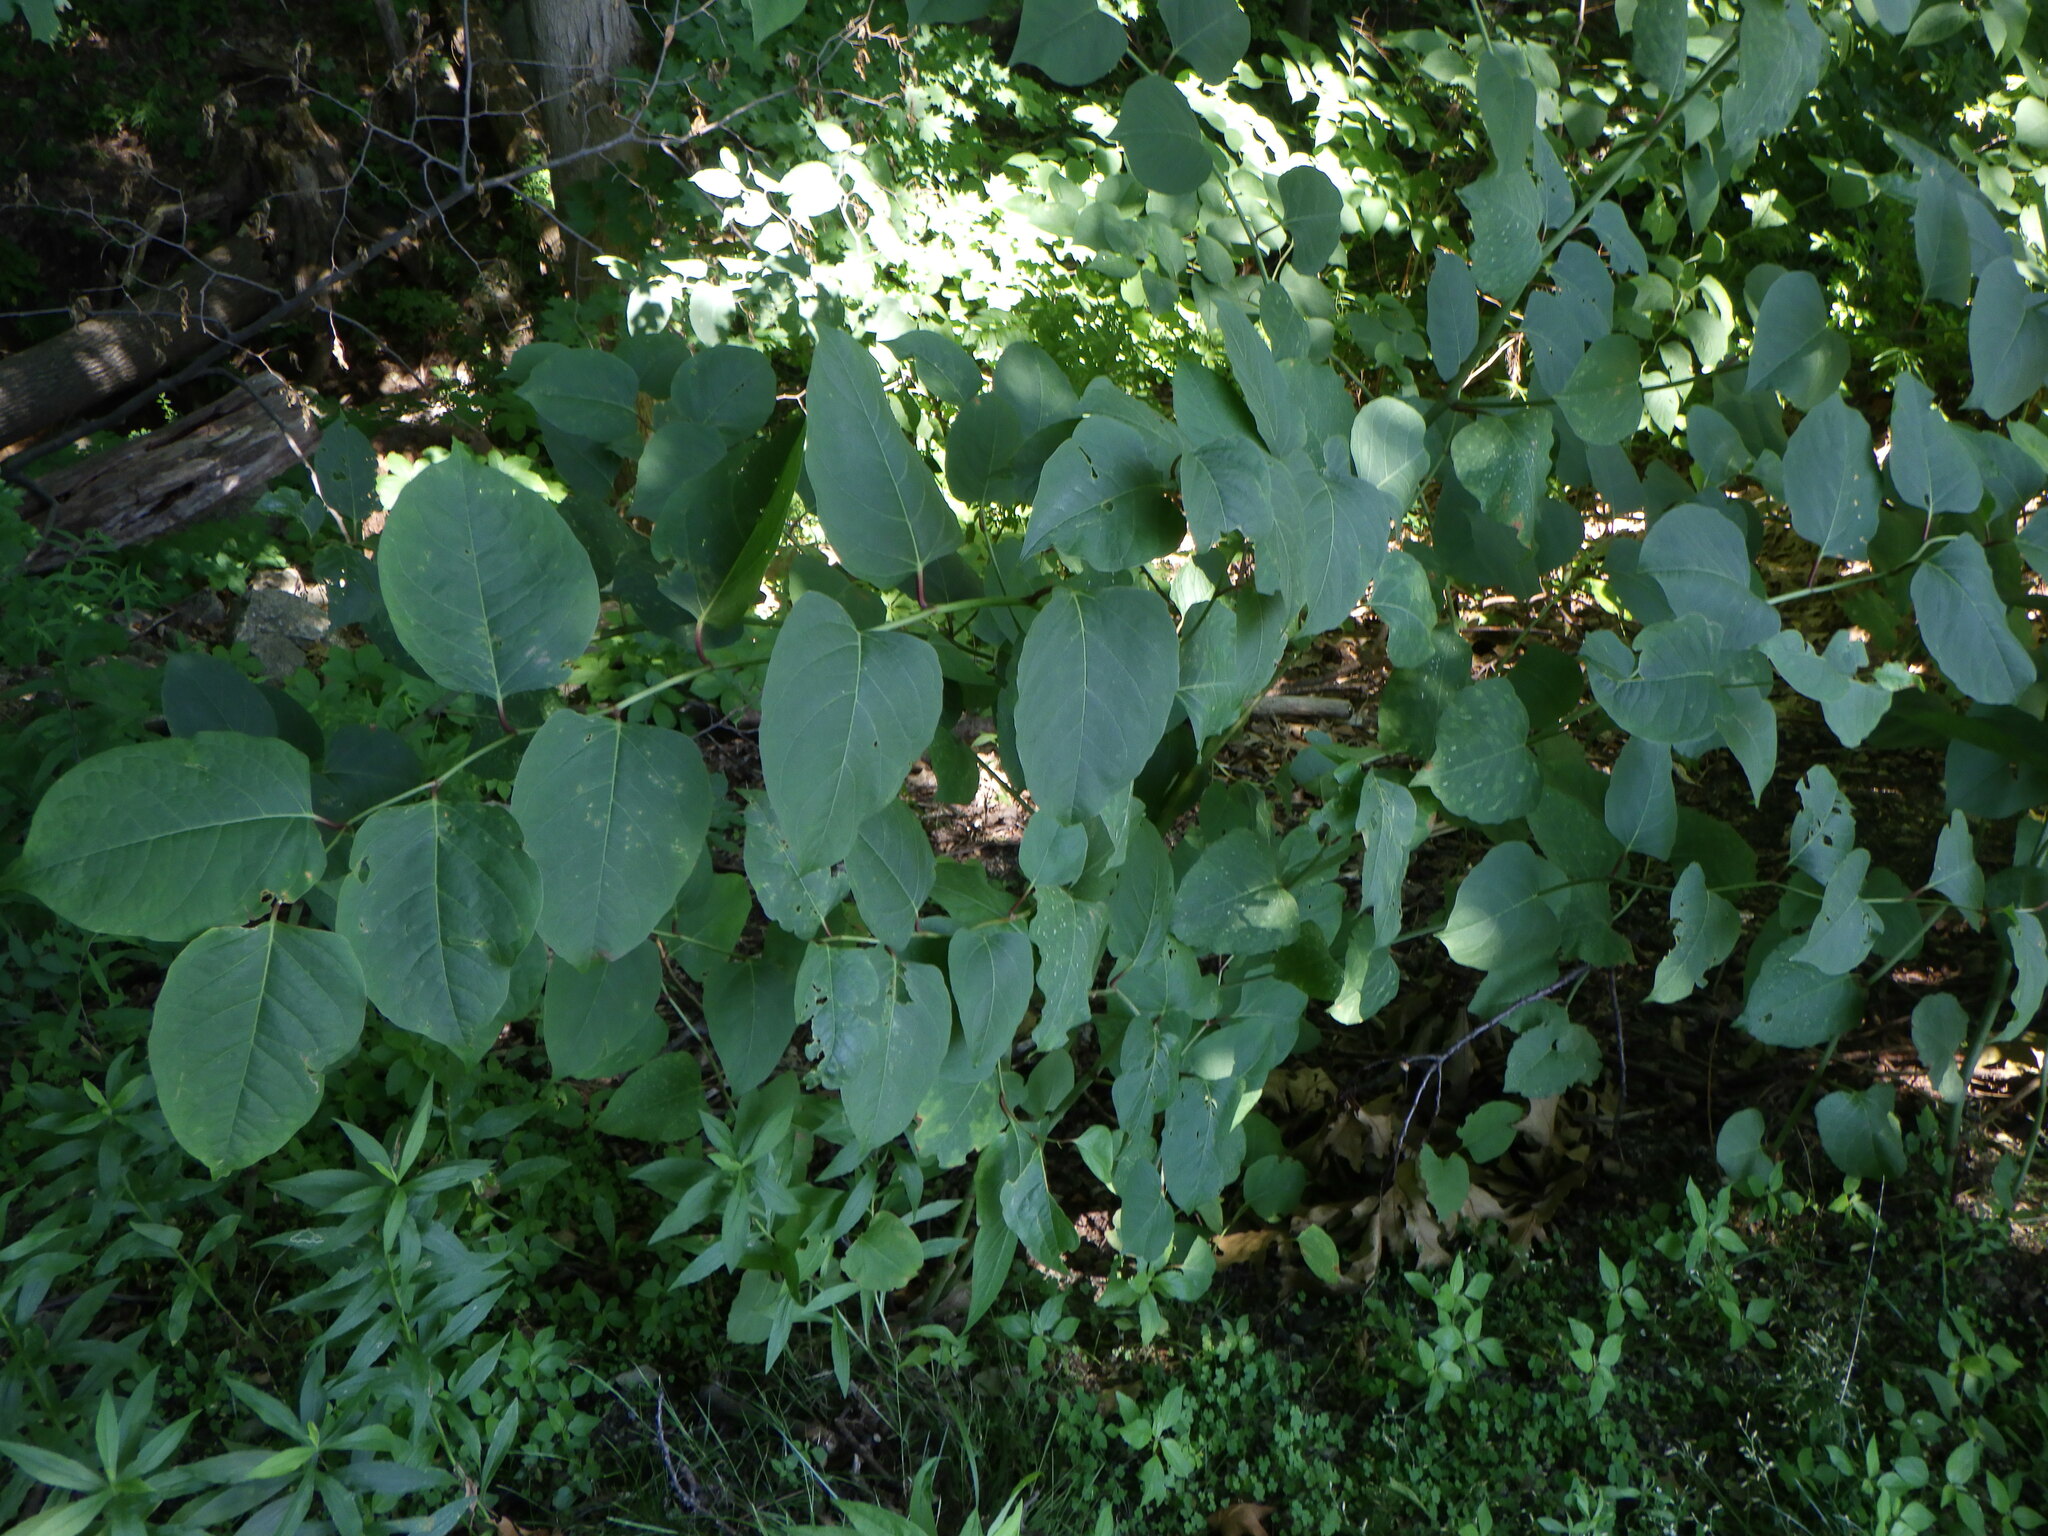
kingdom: Plantae
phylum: Tracheophyta
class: Magnoliopsida
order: Caryophyllales
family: Polygonaceae
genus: Reynoutria
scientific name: Reynoutria japonica
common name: Japanese knotweed
